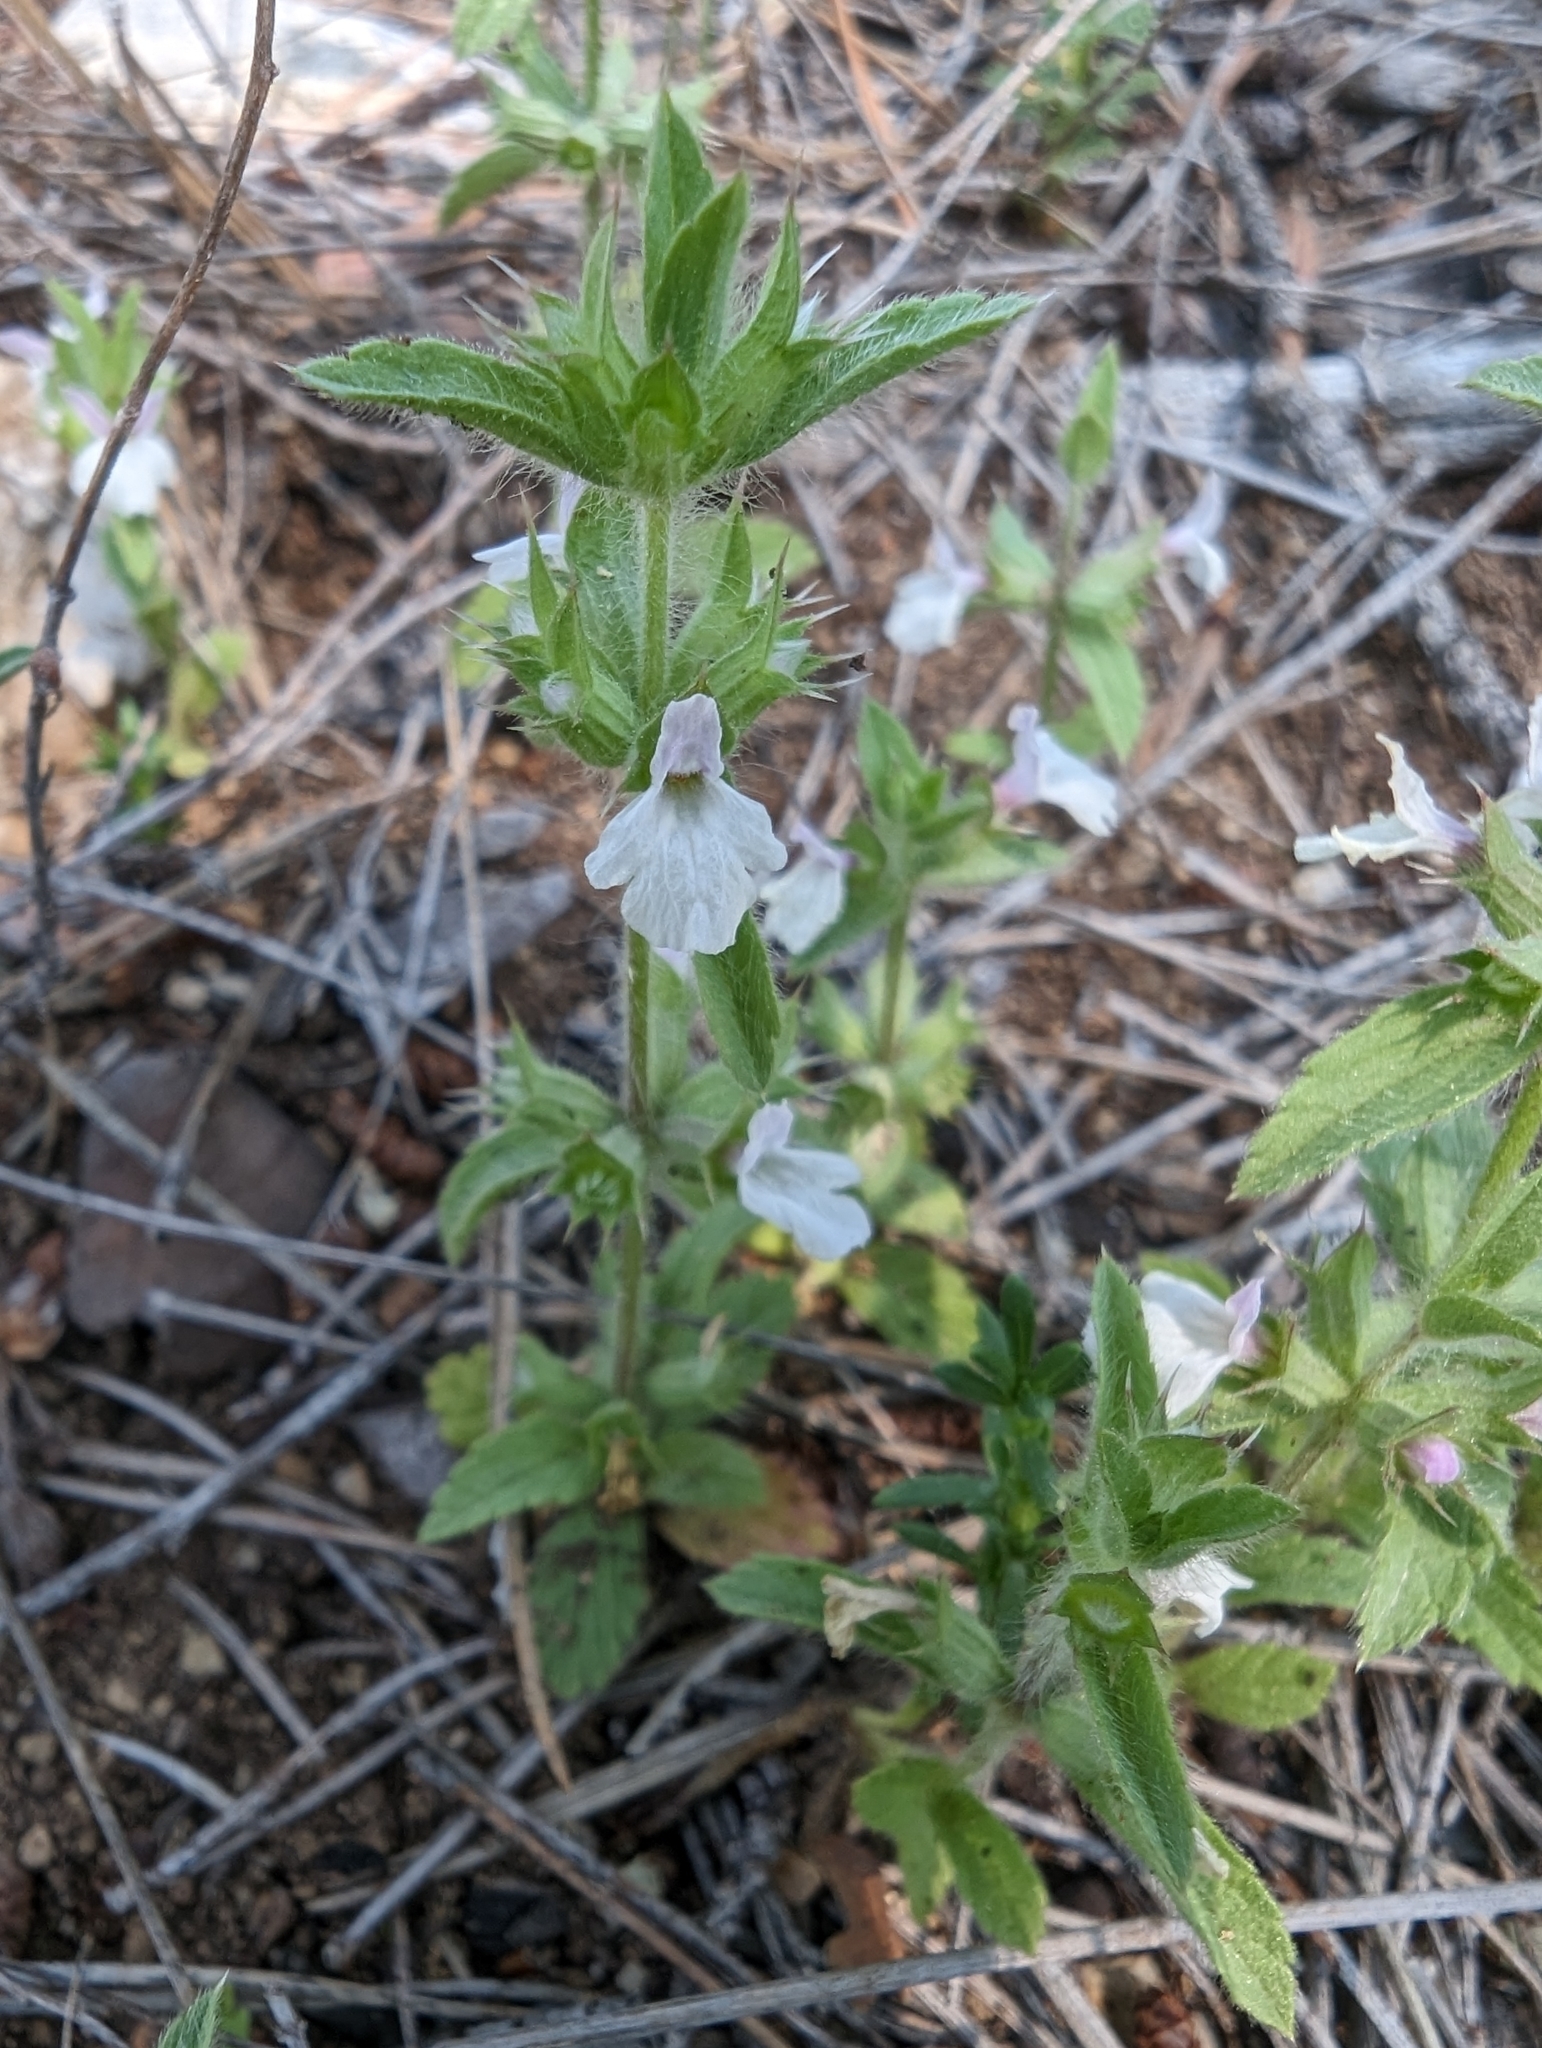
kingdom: Plantae
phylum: Tracheophyta
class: Magnoliopsida
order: Lamiales
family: Lamiaceae
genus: Sideritis
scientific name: Sideritis romana
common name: Simplebeak ironwort
